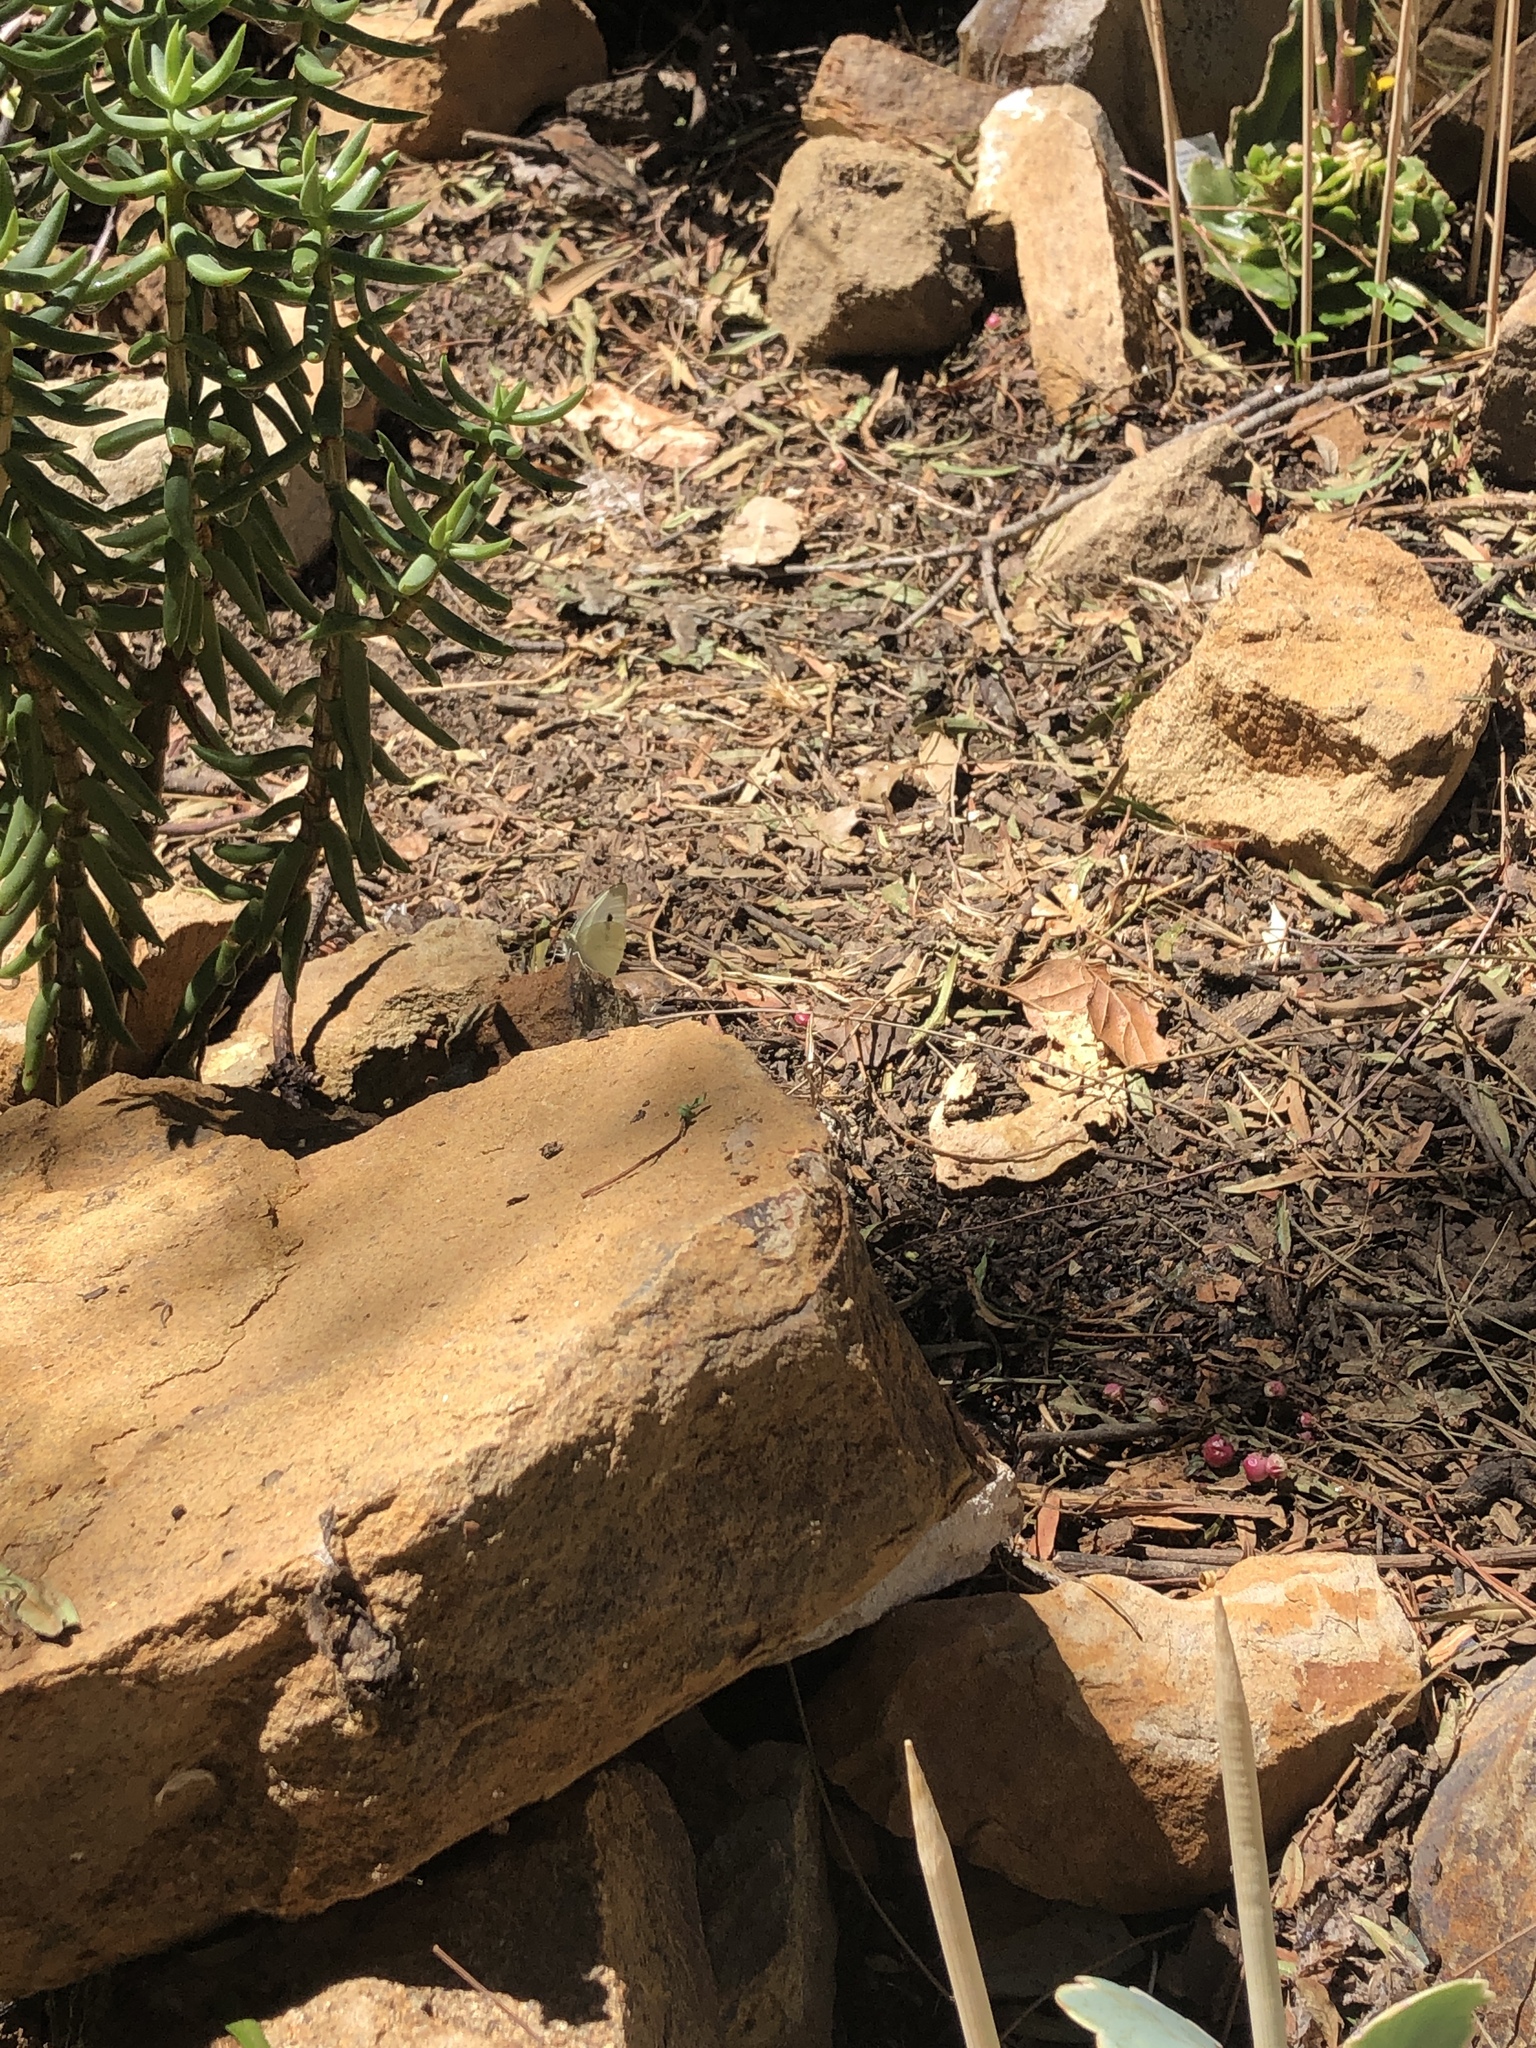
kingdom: Animalia
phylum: Arthropoda
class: Insecta
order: Lepidoptera
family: Pieridae
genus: Pieris
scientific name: Pieris rapae
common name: Small white
